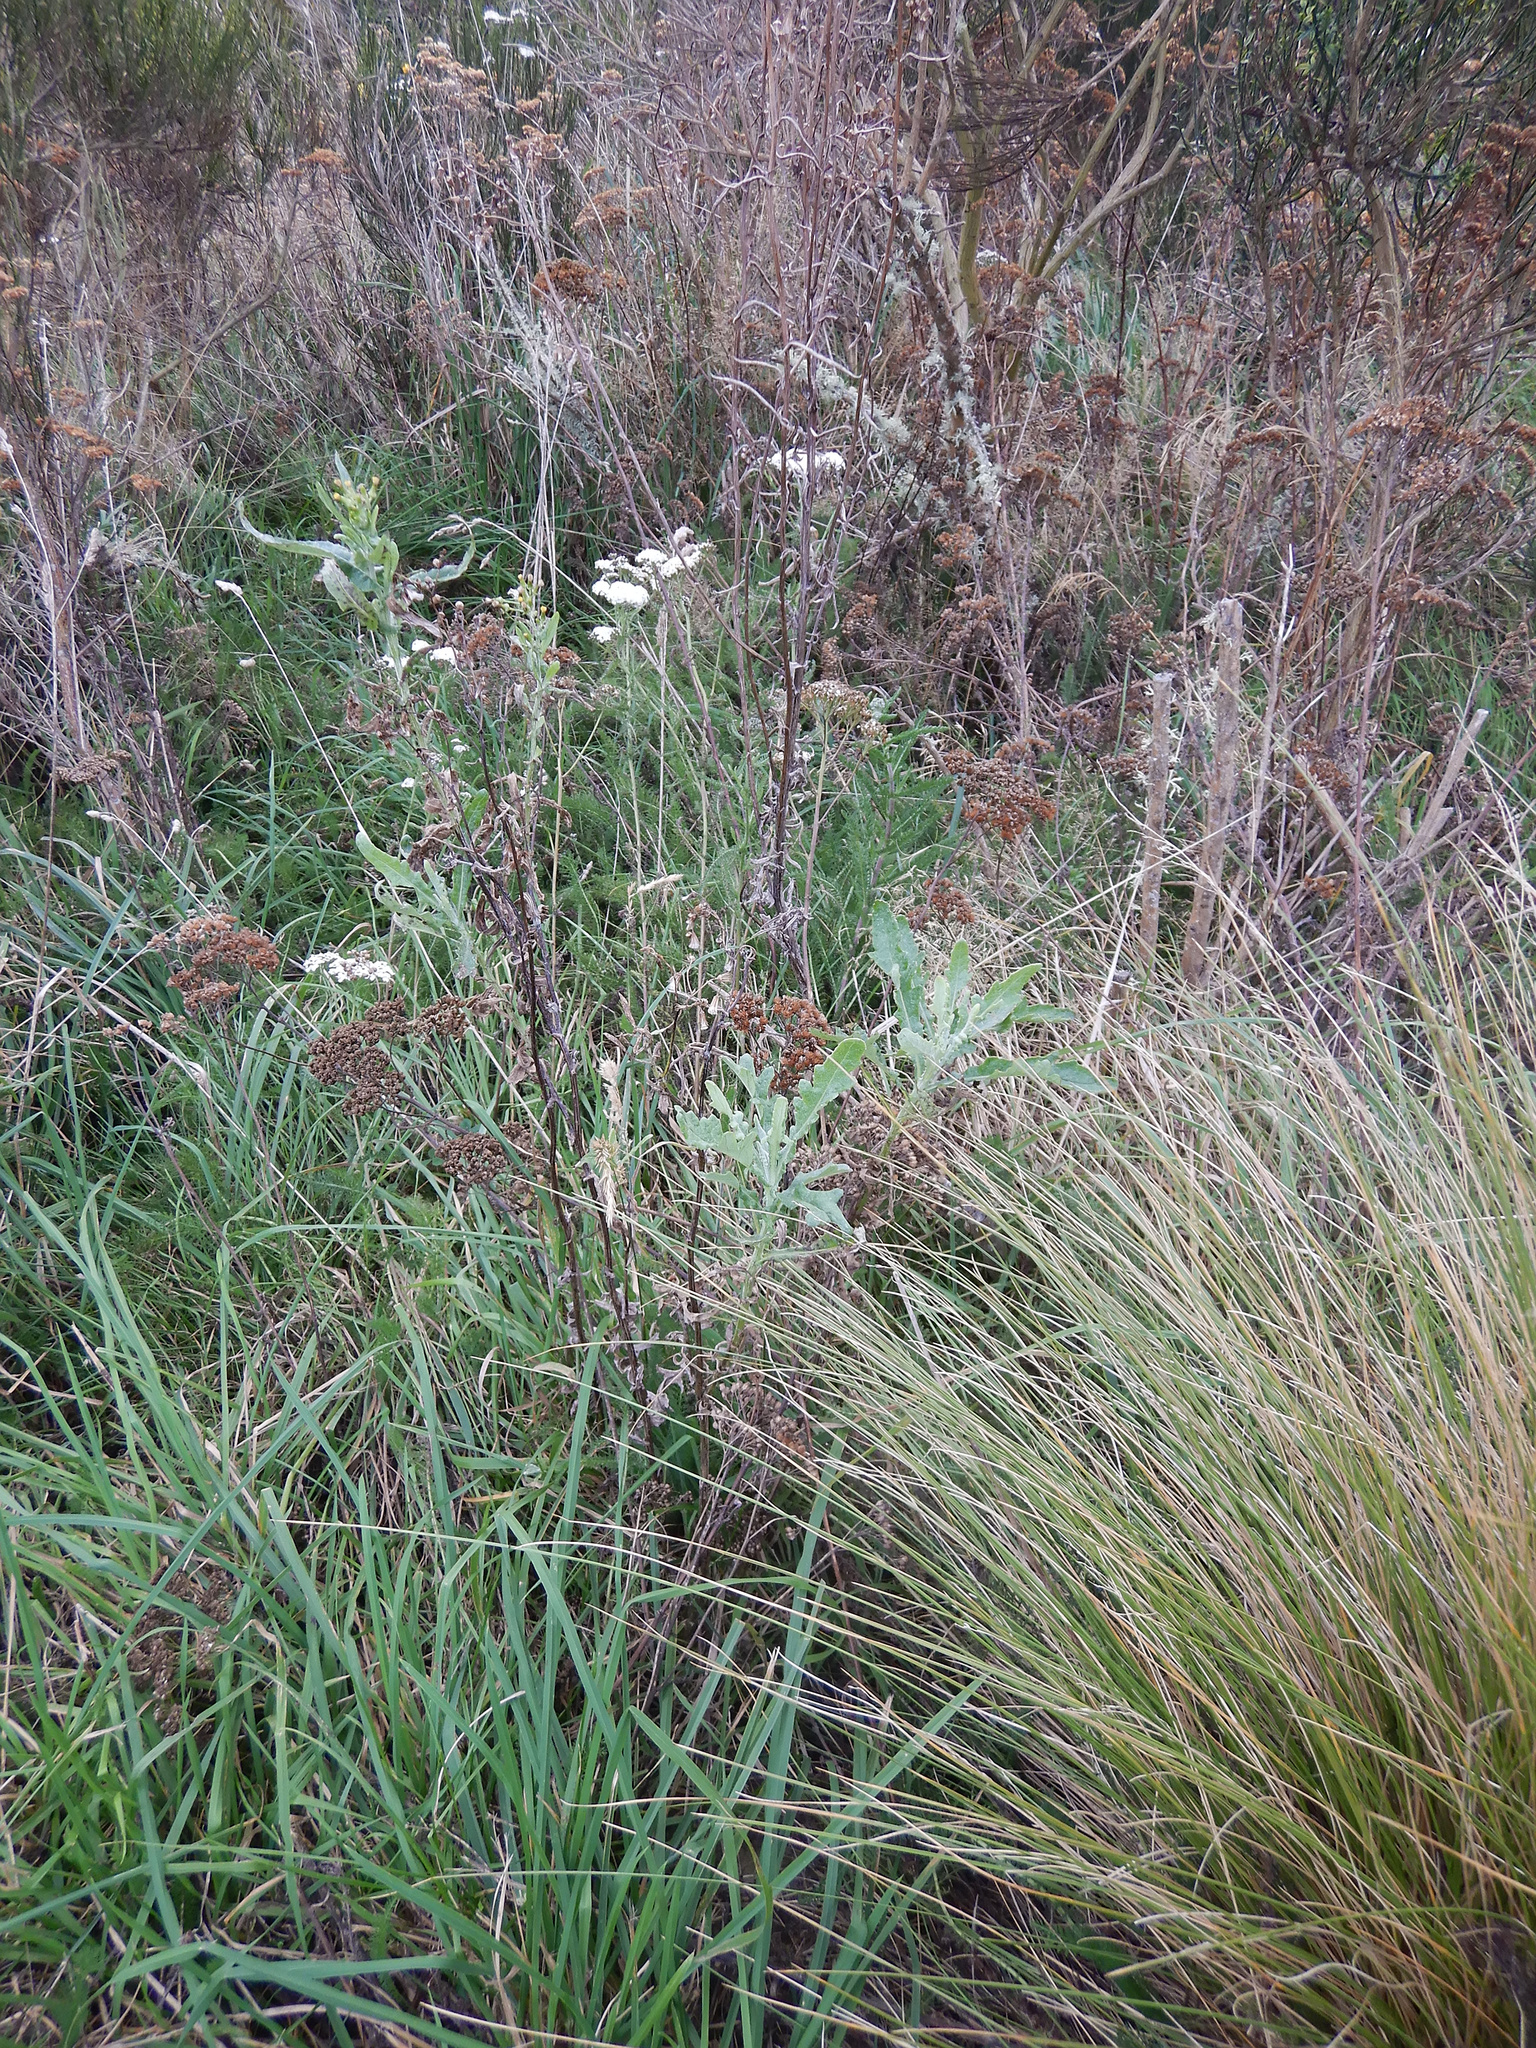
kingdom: Plantae
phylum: Tracheophyta
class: Magnoliopsida
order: Asterales
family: Asteraceae
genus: Senecio
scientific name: Senecio glomeratus
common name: Cutleaf burnweed
